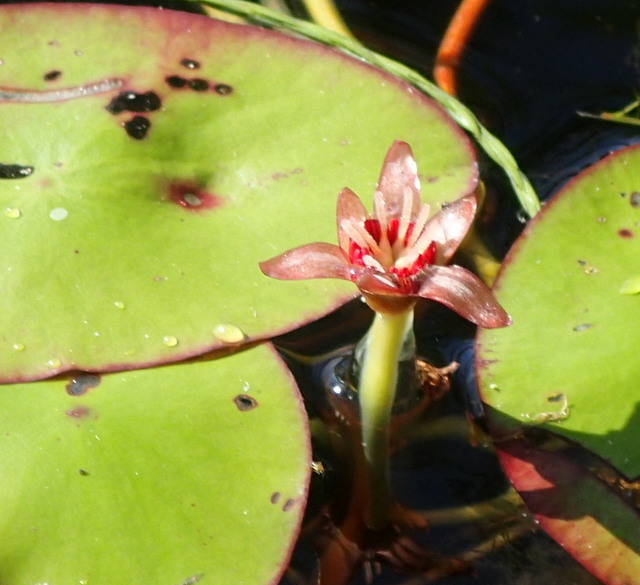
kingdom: Plantae
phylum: Tracheophyta
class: Magnoliopsida
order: Nymphaeales
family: Cabombaceae
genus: Brasenia
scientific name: Brasenia schreberi
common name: Water-shield
